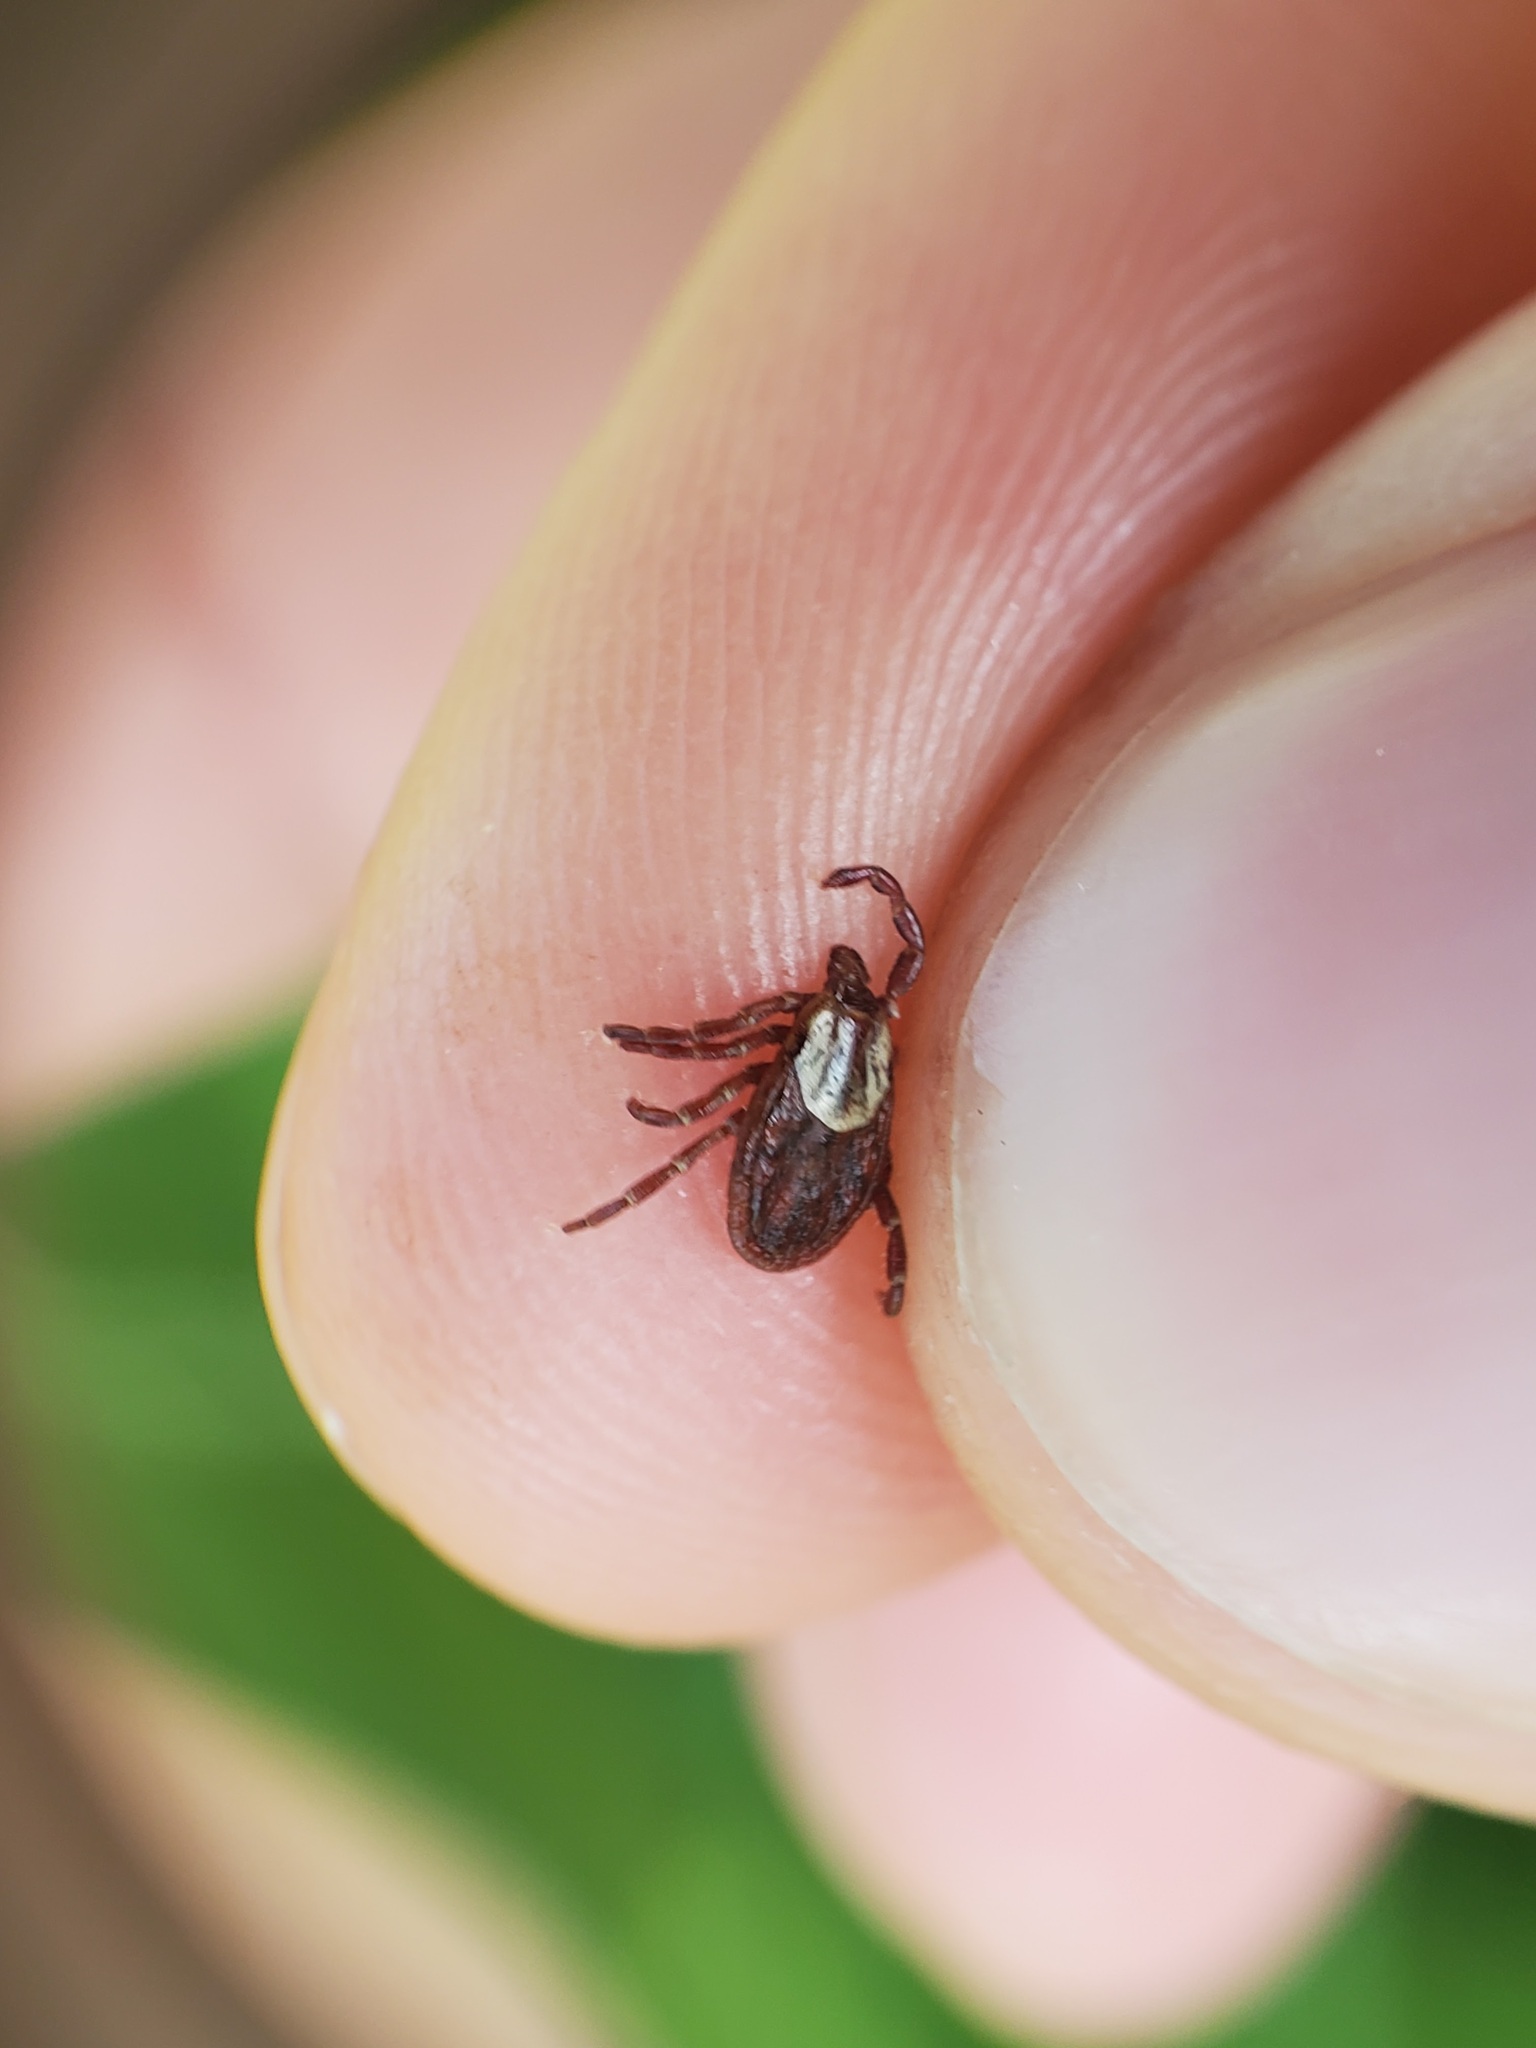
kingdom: Animalia
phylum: Arthropoda
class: Arachnida
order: Ixodida
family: Ixodidae
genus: Dermacentor
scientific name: Dermacentor variabilis
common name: American dog tick
